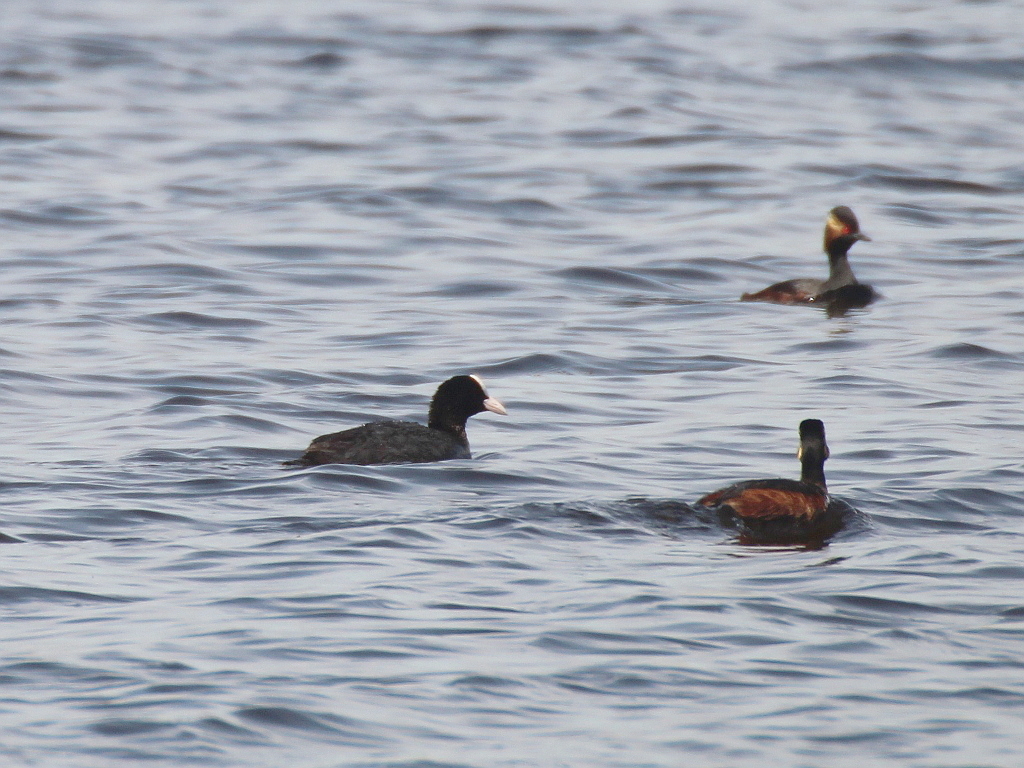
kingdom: Animalia
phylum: Chordata
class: Aves
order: Gruiformes
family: Rallidae
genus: Fulica
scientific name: Fulica atra
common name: Eurasian coot
